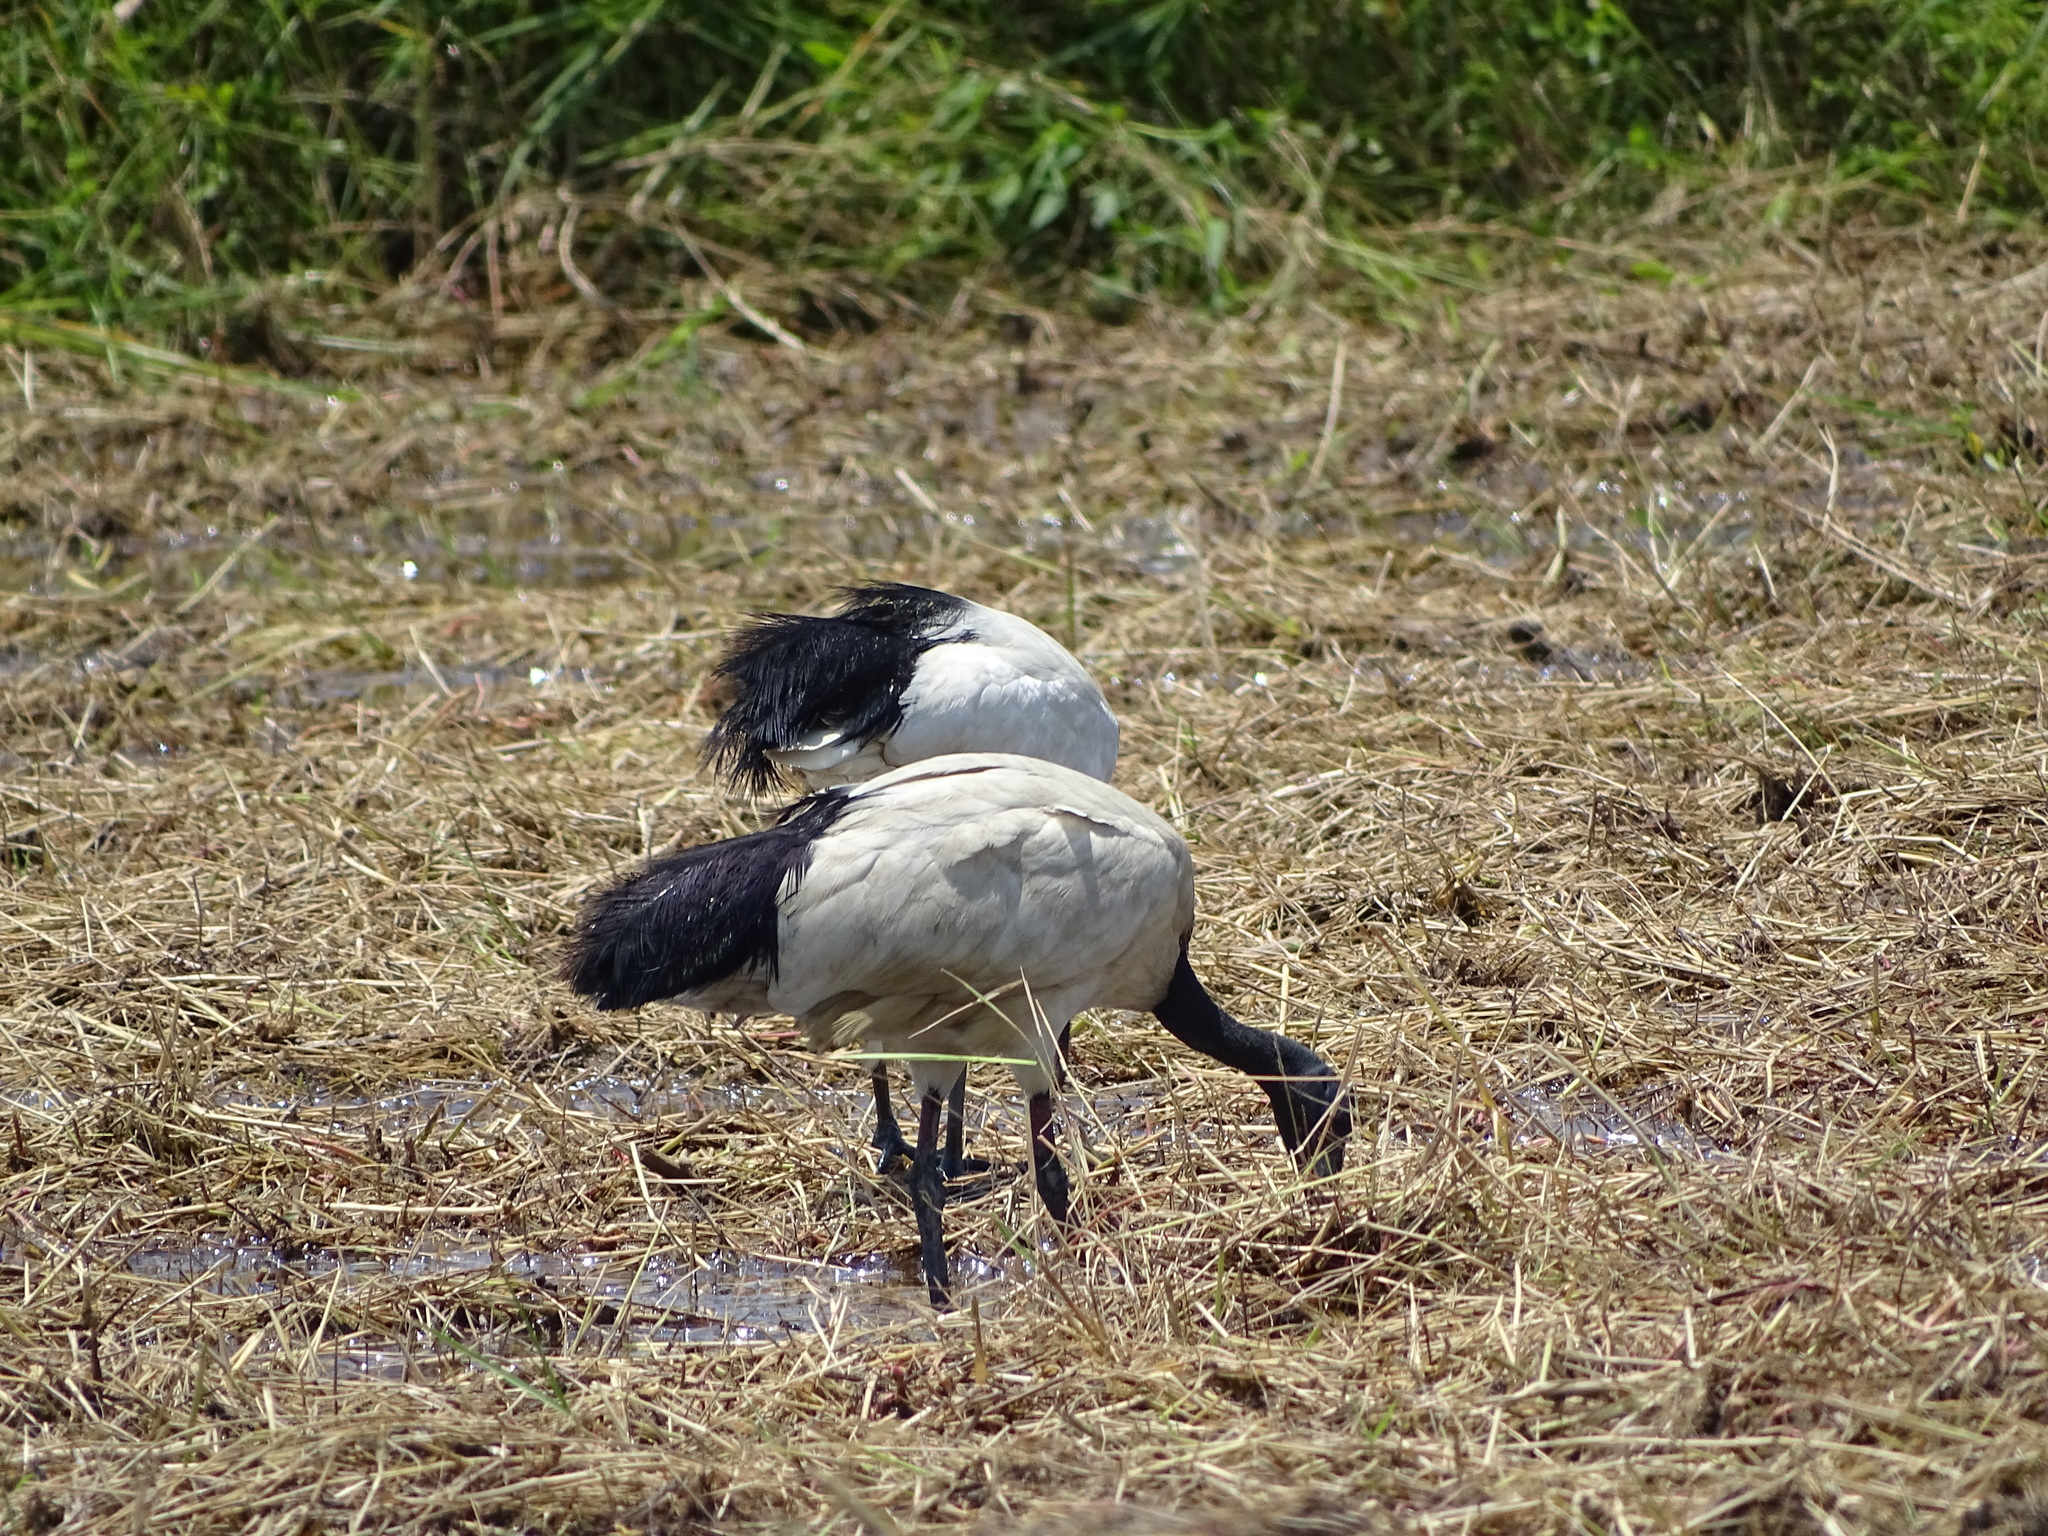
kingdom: Animalia
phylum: Chordata
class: Aves
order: Pelecaniformes
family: Threskiornithidae
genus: Threskiornis
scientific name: Threskiornis aethiopicus
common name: Sacred ibis
